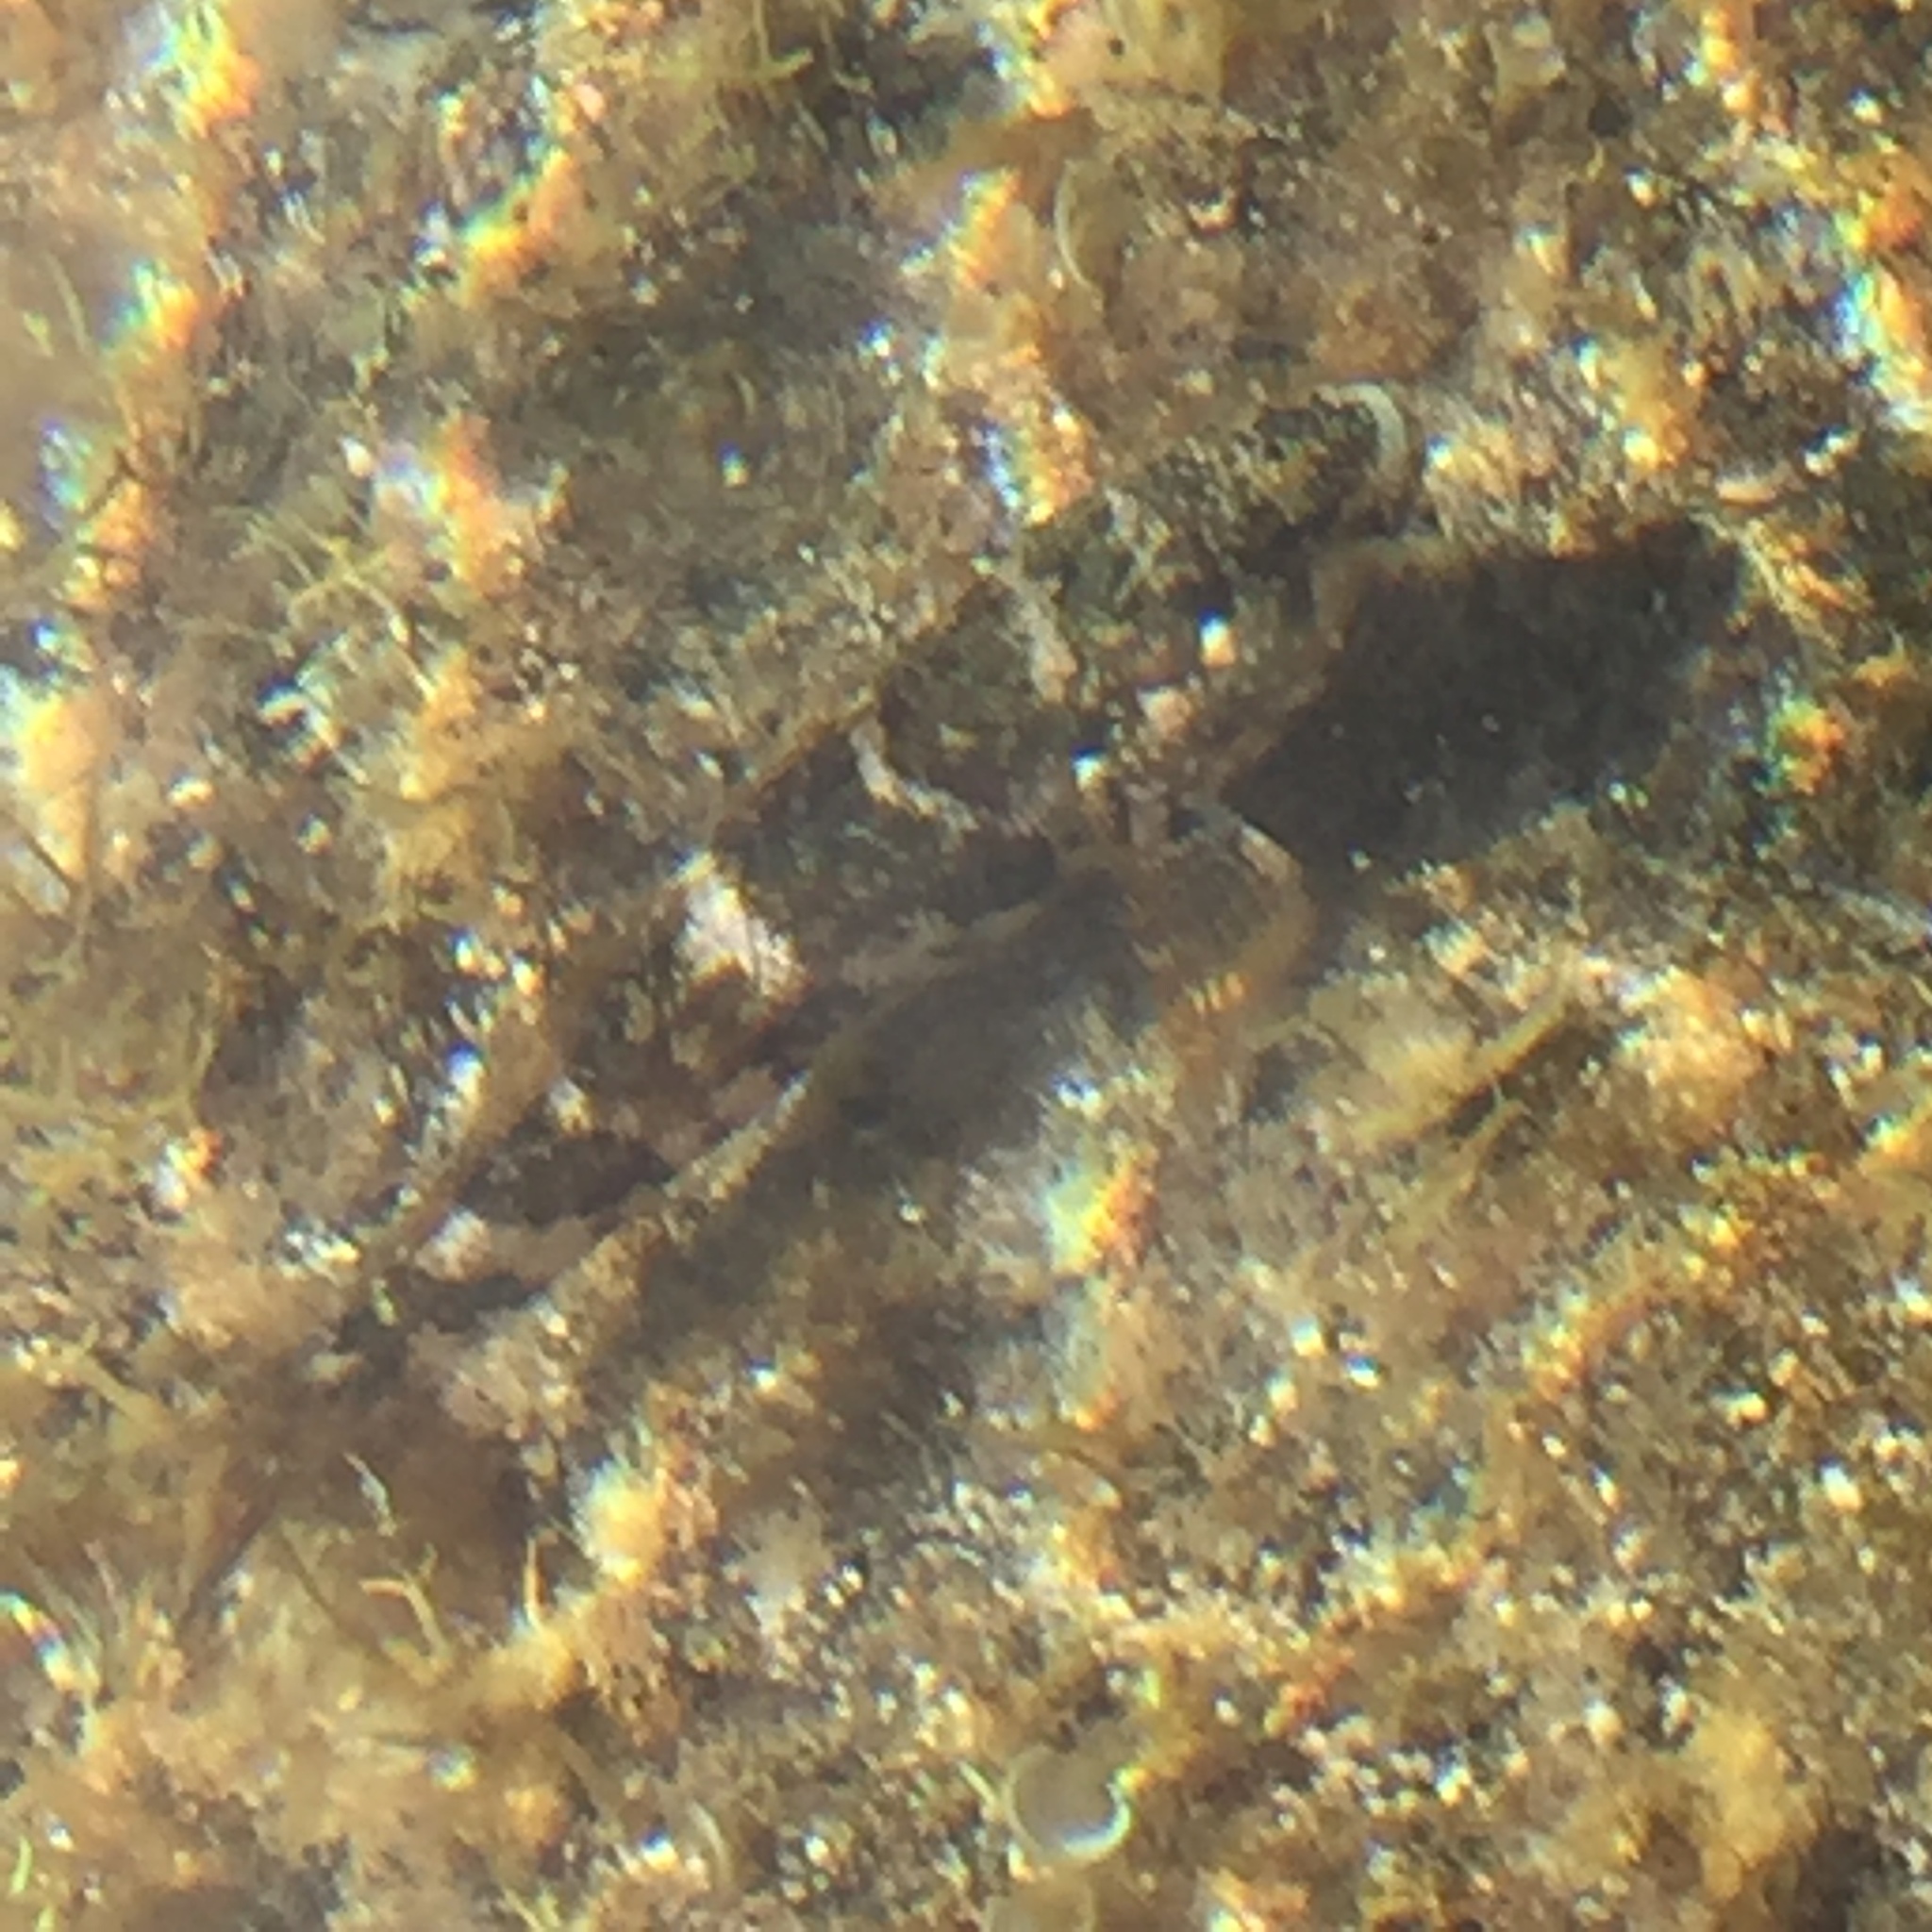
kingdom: Animalia
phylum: Chordata
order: Perciformes
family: Gobiidae
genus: Mauligobius
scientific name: Mauligobius maderensis
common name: Rock goby
